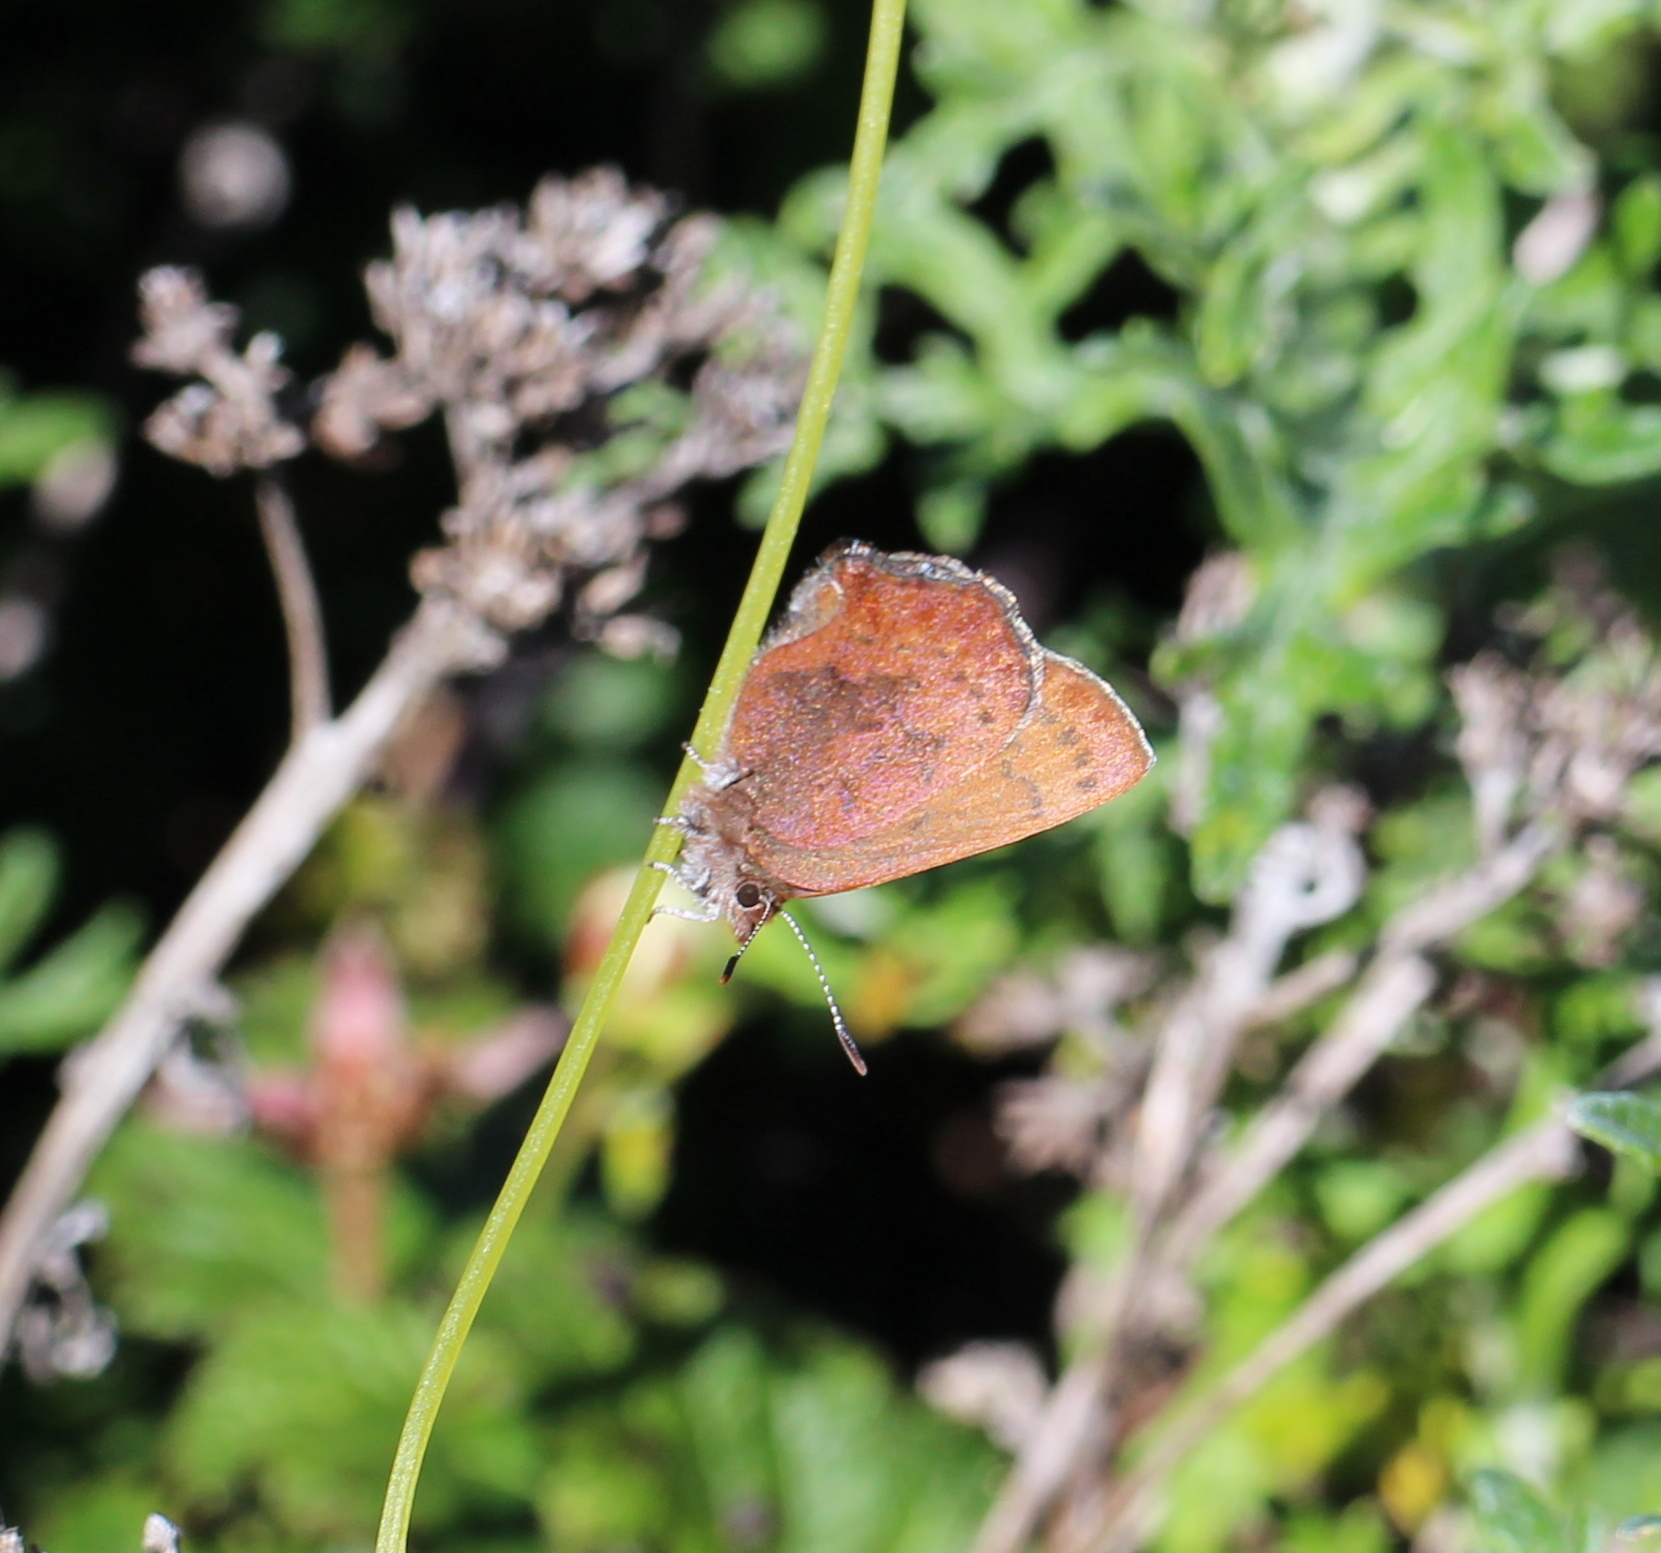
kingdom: Animalia
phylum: Arthropoda
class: Insecta
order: Lepidoptera
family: Lycaenidae
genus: Incisalia
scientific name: Incisalia irioides
